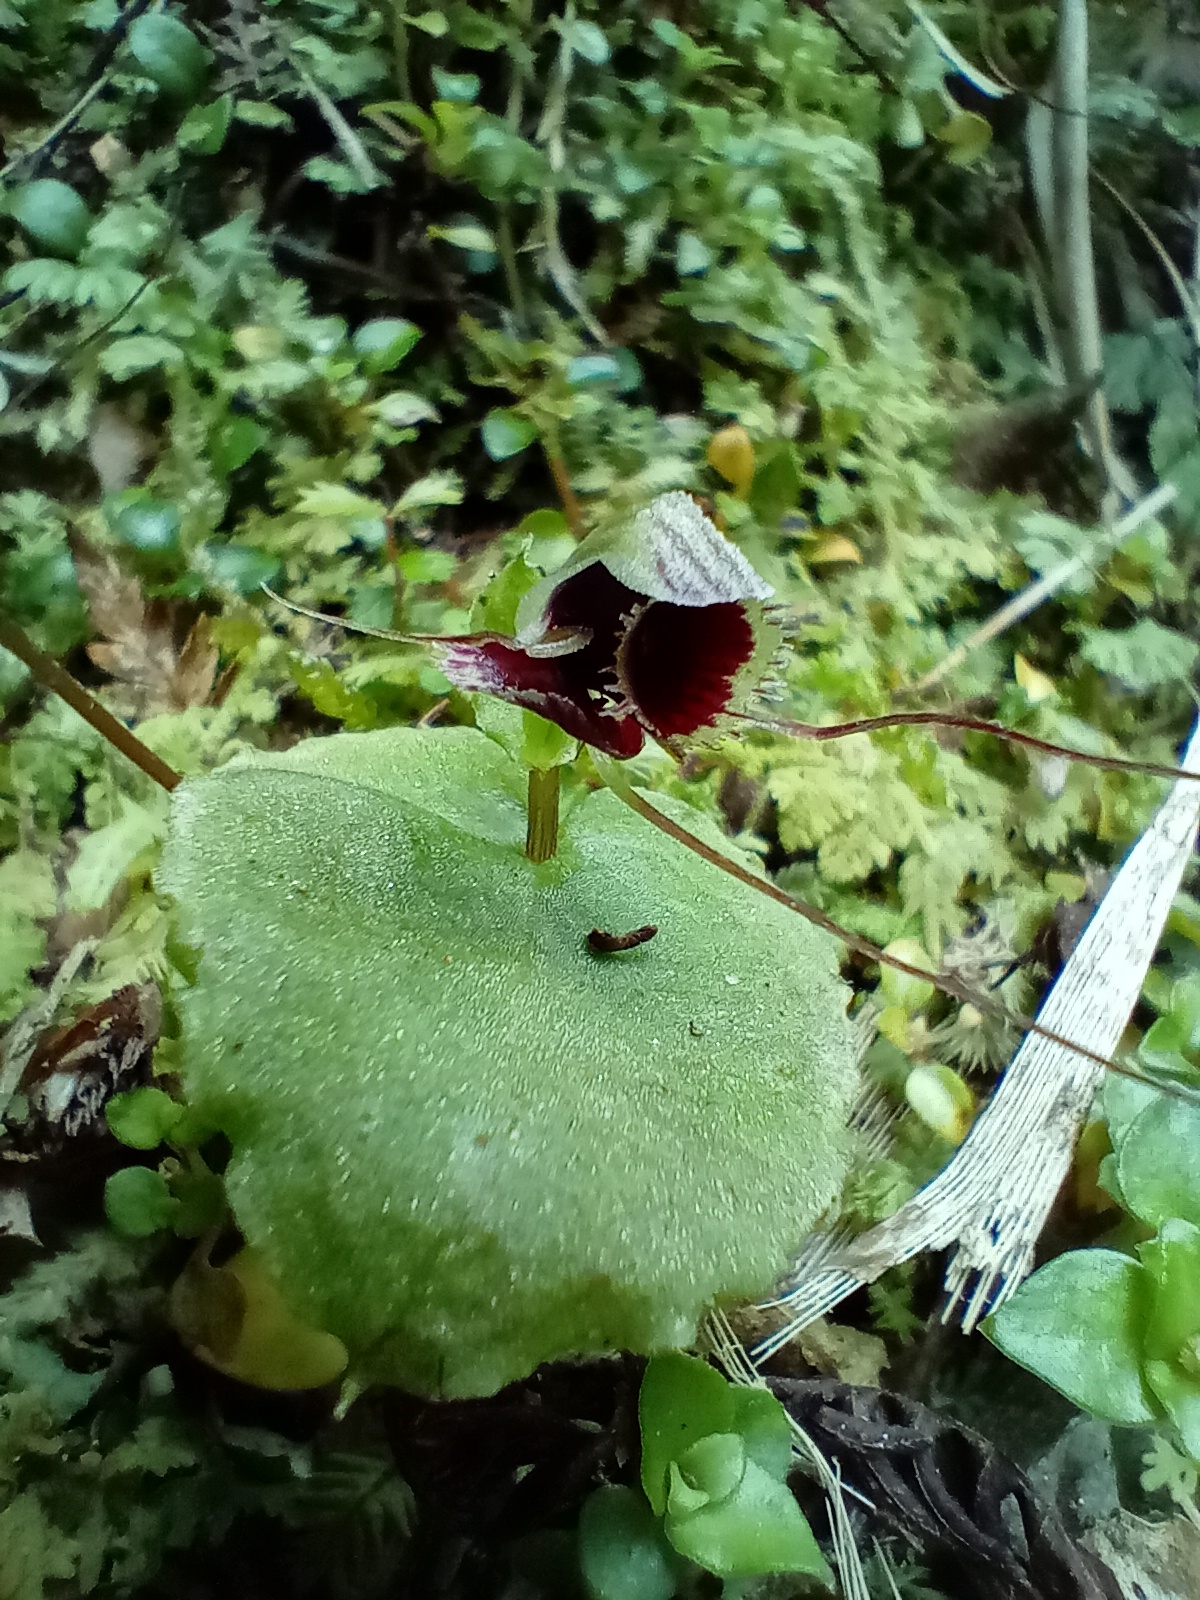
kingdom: Plantae
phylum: Tracheophyta
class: Liliopsida
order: Asparagales
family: Orchidaceae
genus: Corybas
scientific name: Corybas oblongus
